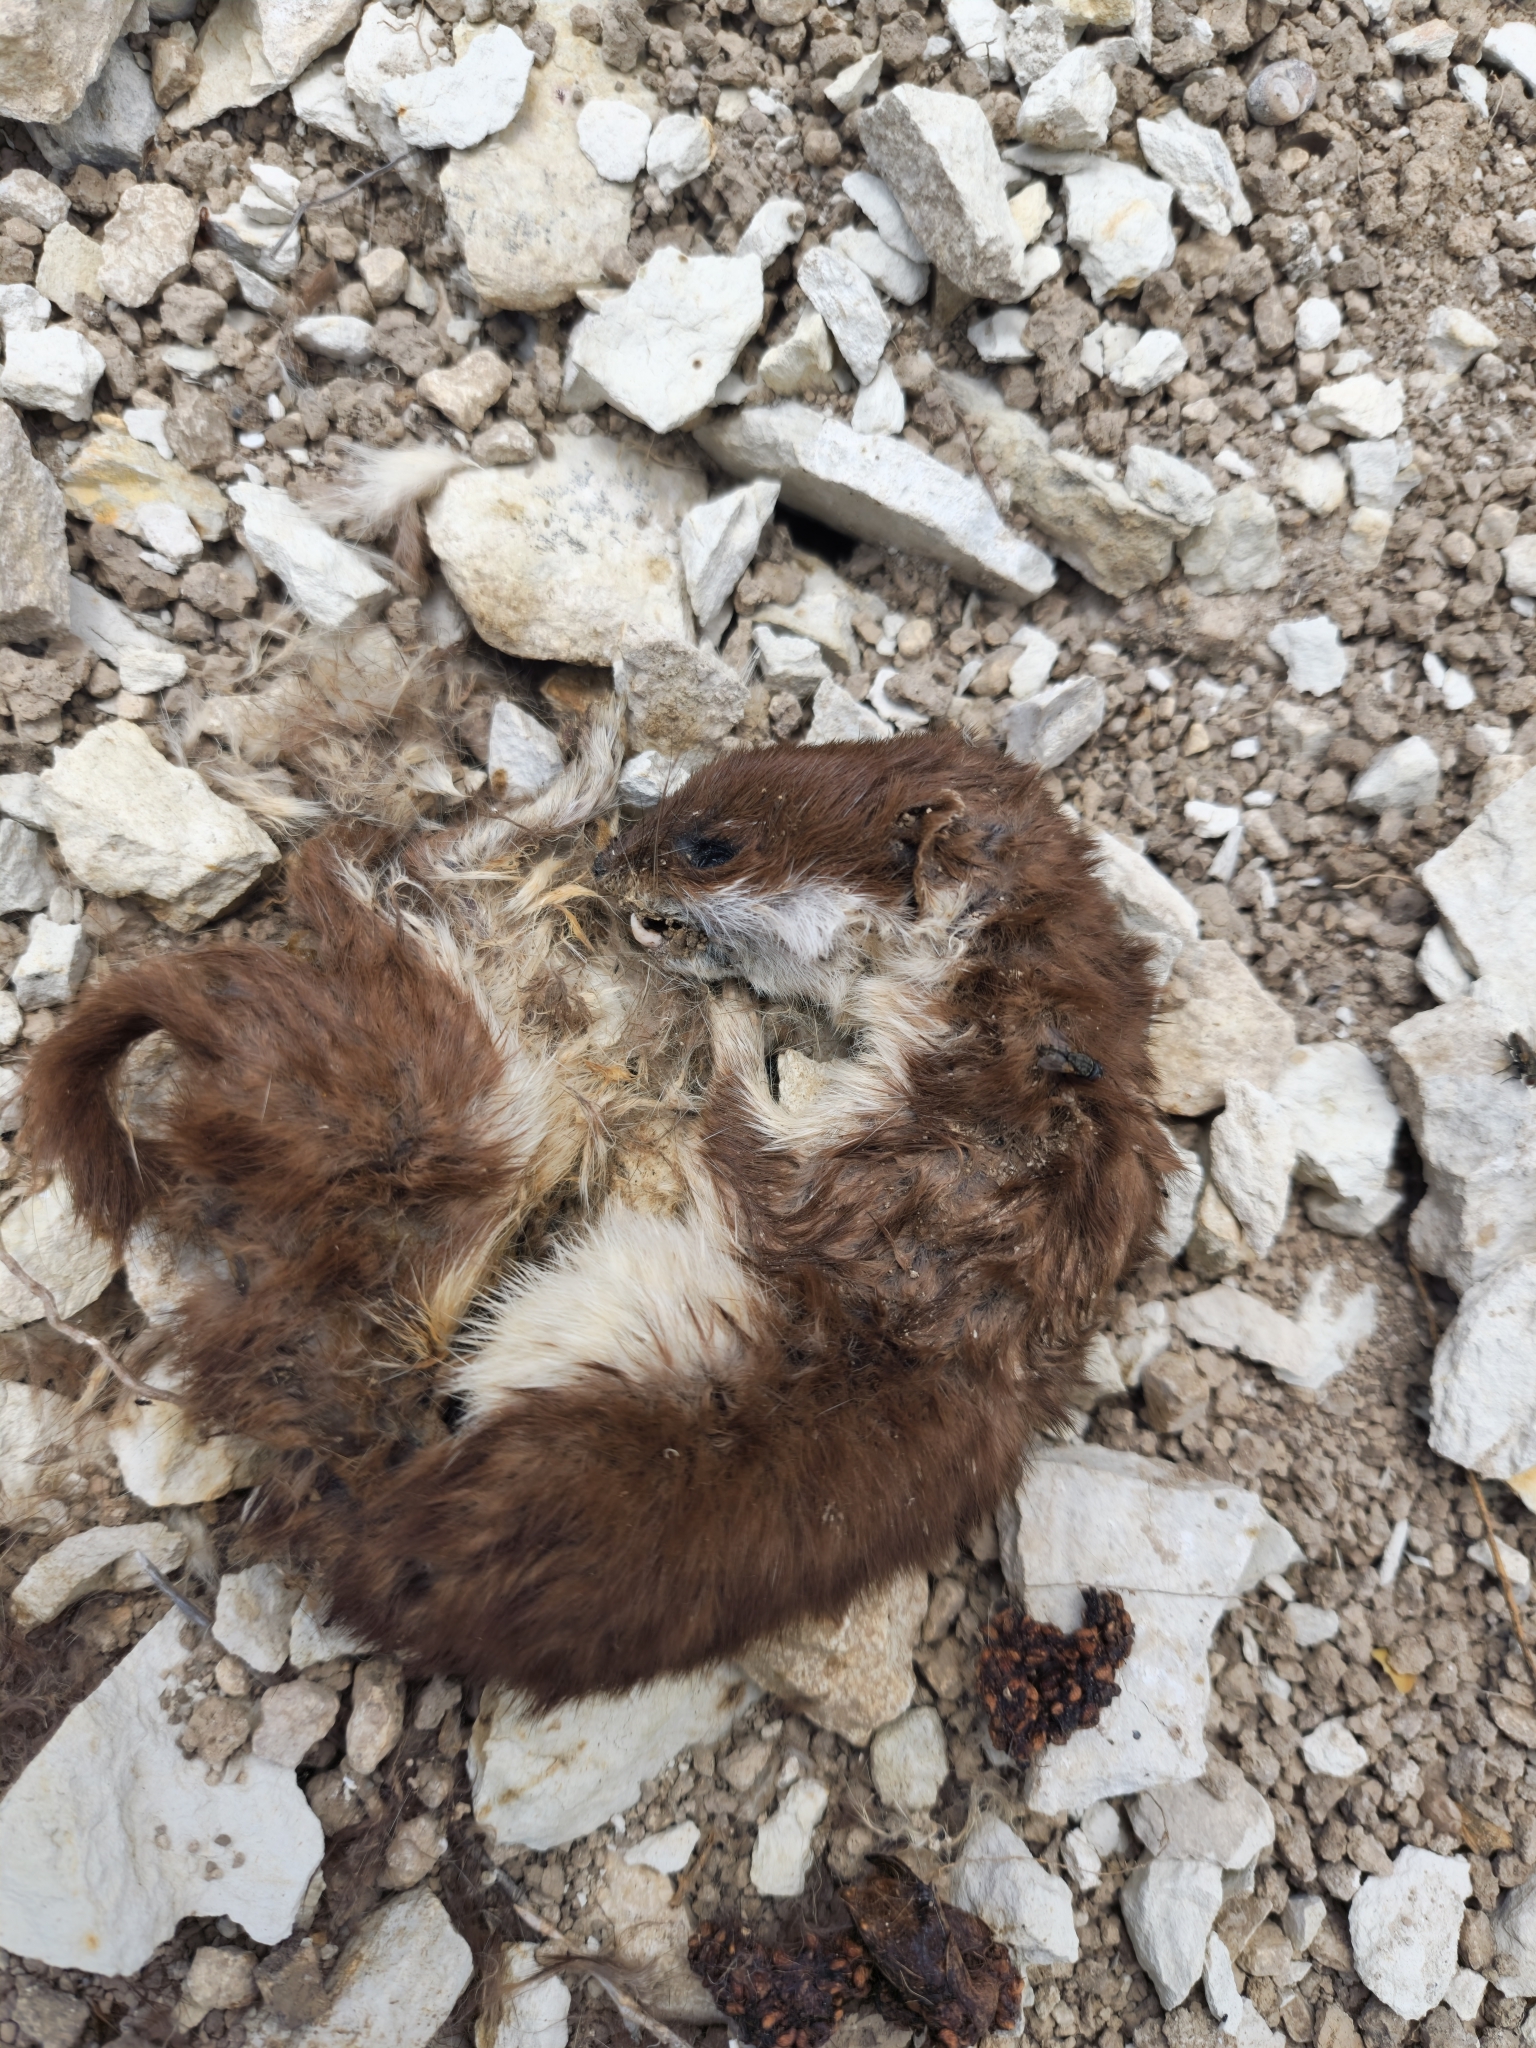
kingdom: Animalia
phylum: Chordata
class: Mammalia
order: Carnivora
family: Mustelidae
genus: Mustela
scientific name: Mustela nivalis
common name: Least weasel
